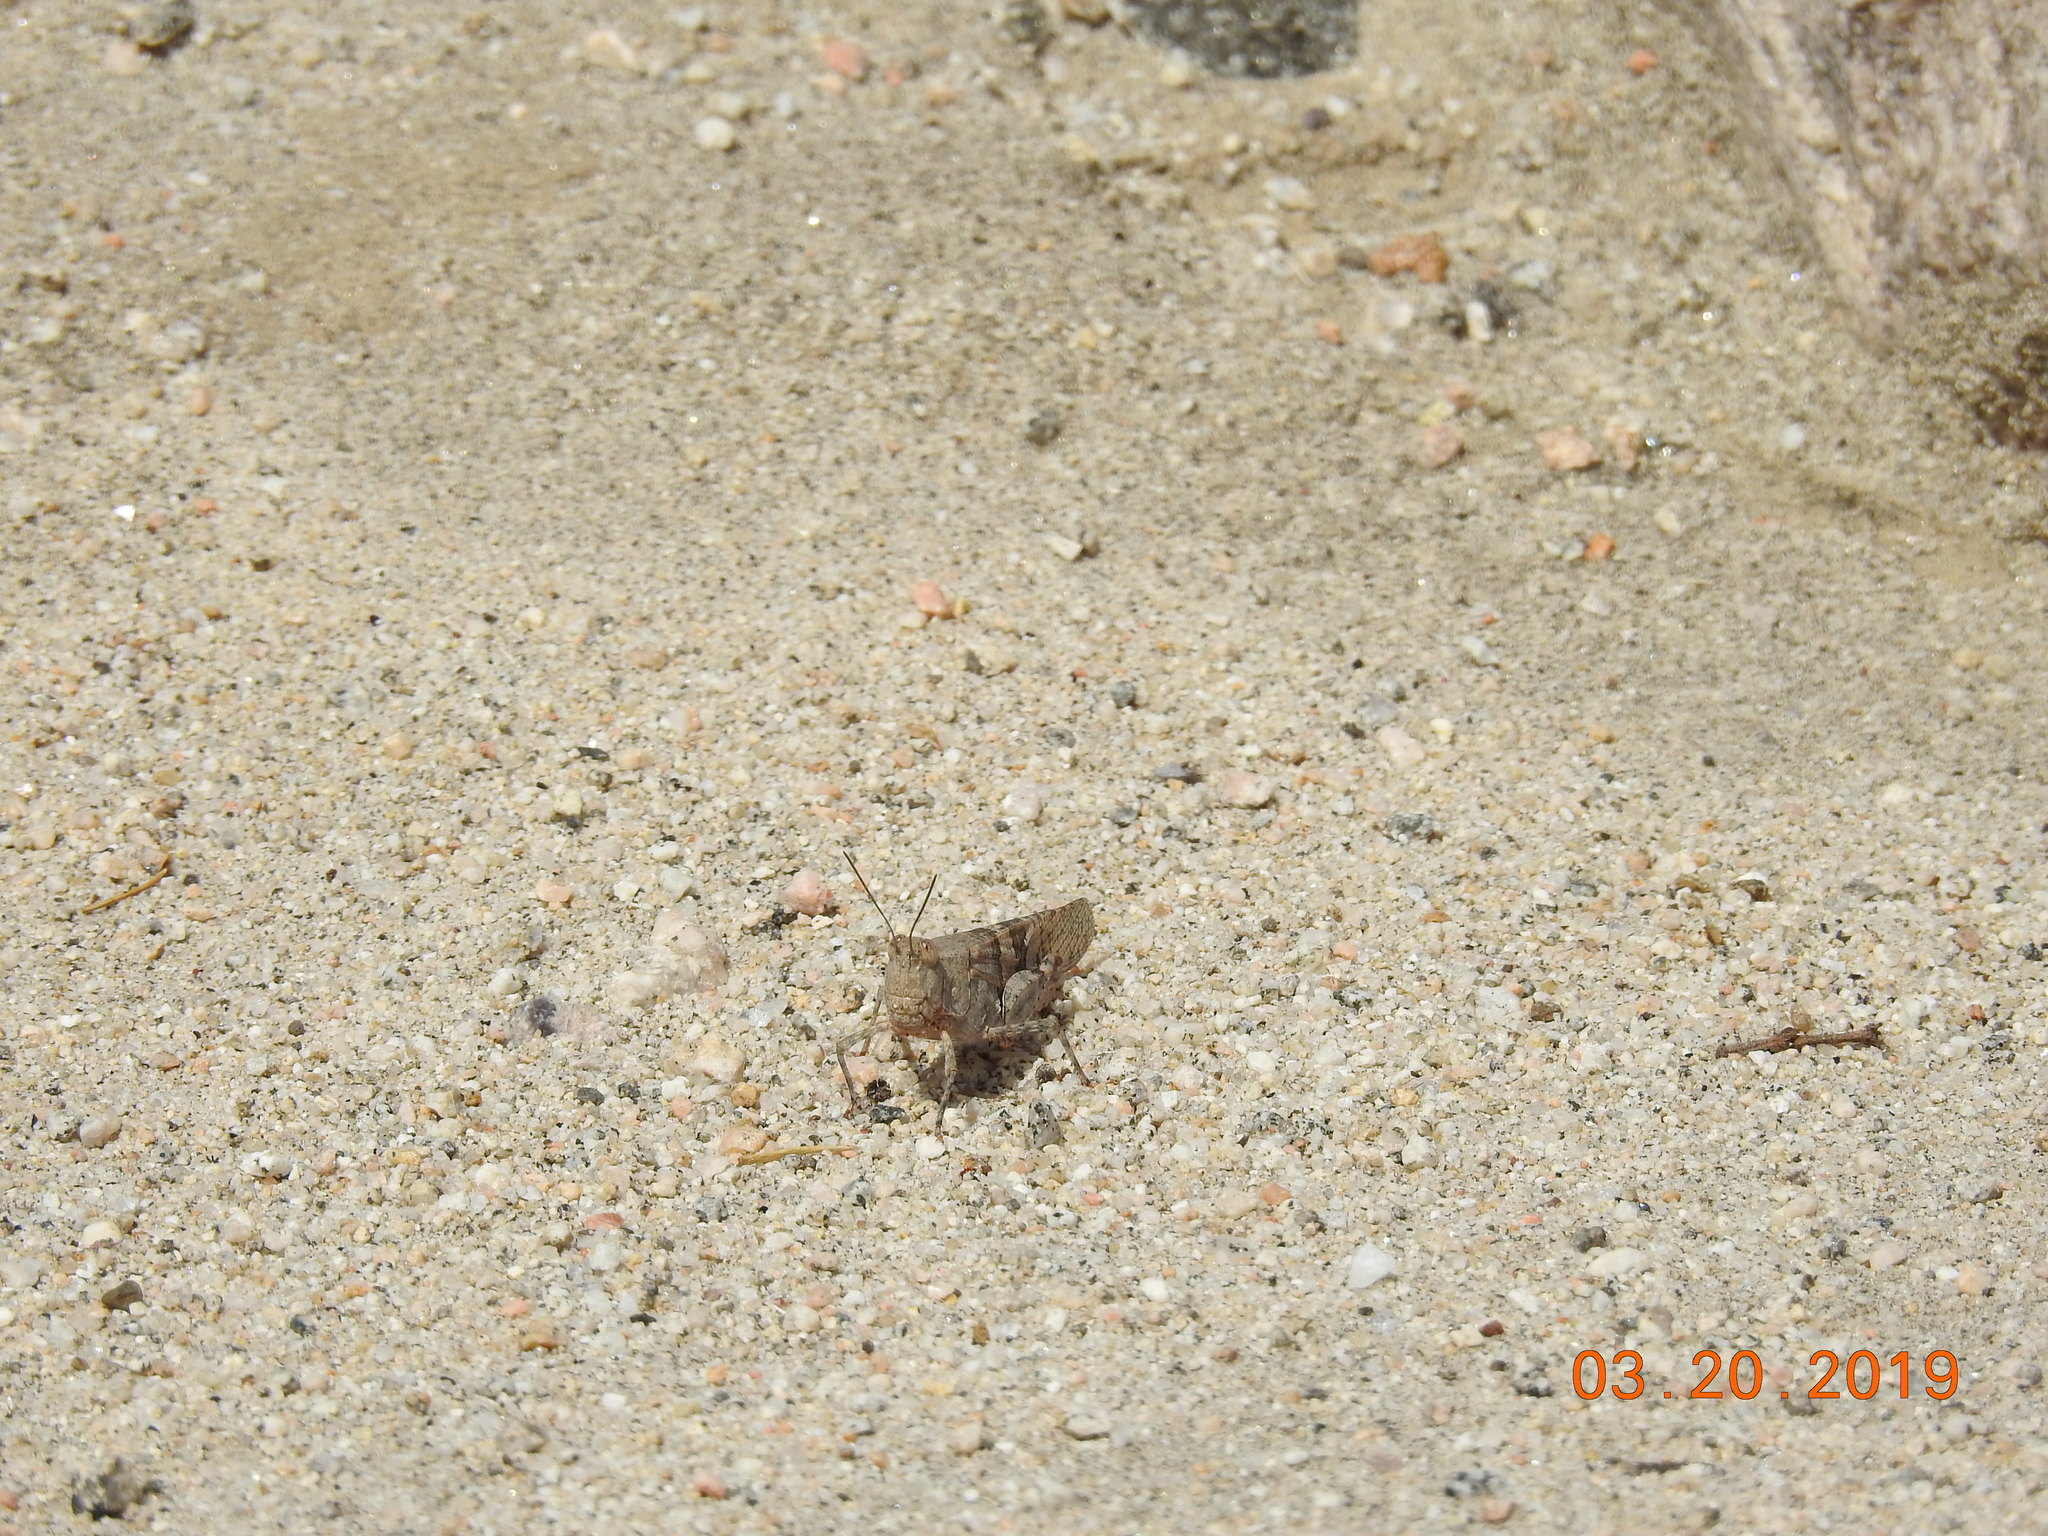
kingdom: Animalia
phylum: Arthropoda
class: Insecta
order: Orthoptera
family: Acrididae
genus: Trimerotropis
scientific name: Trimerotropis pallidipennis
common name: Pallid-winged grasshopper
